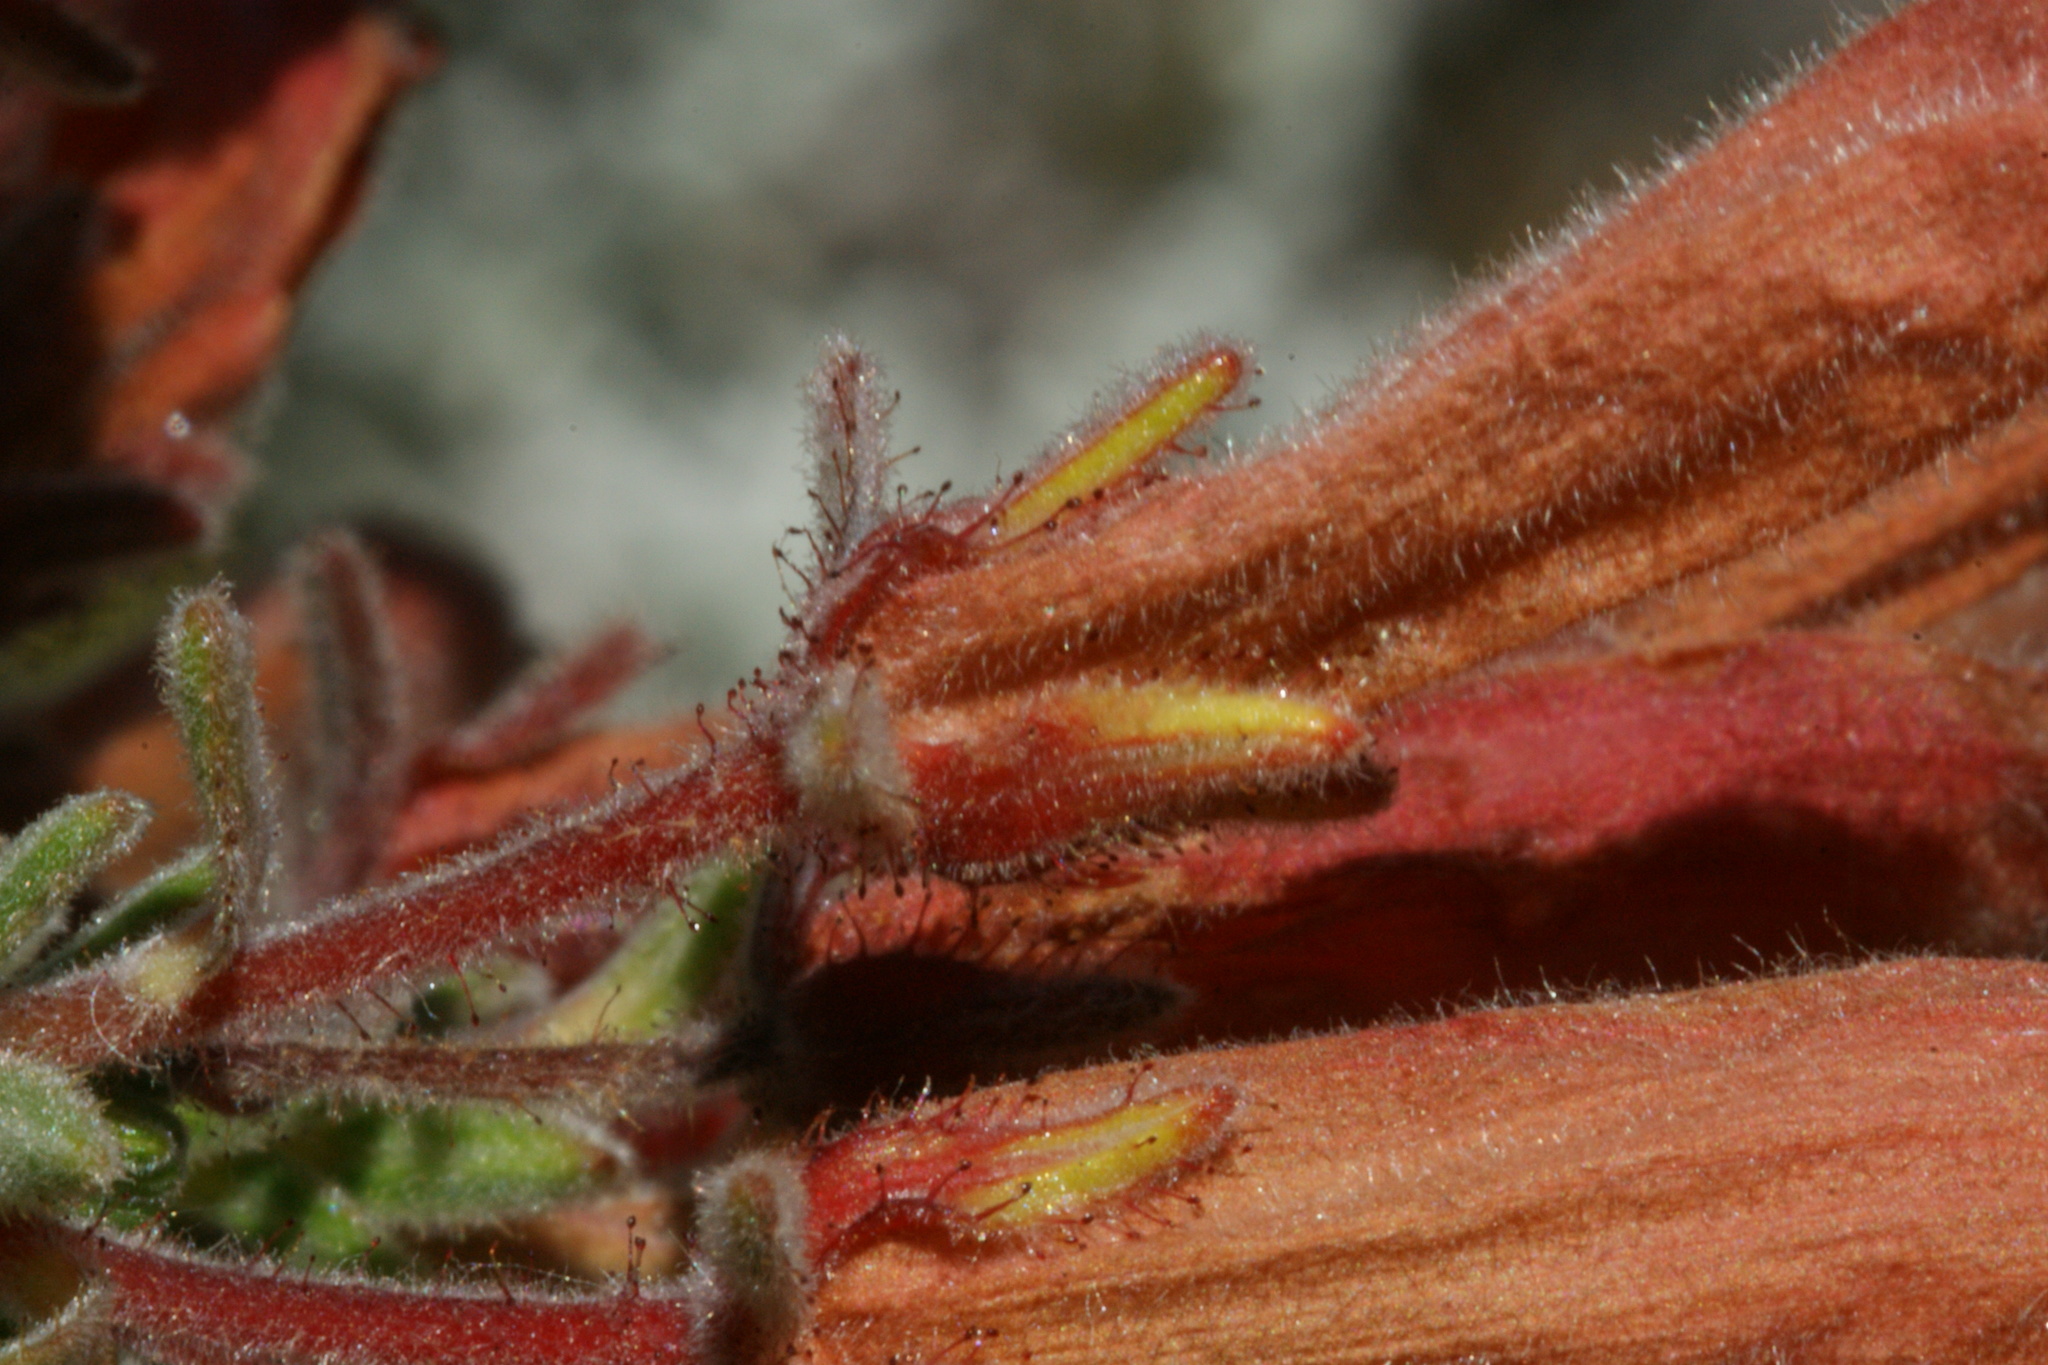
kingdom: Plantae
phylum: Tracheophyta
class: Magnoliopsida
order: Ericales
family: Ericaceae
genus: Erica
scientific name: Erica tumida
